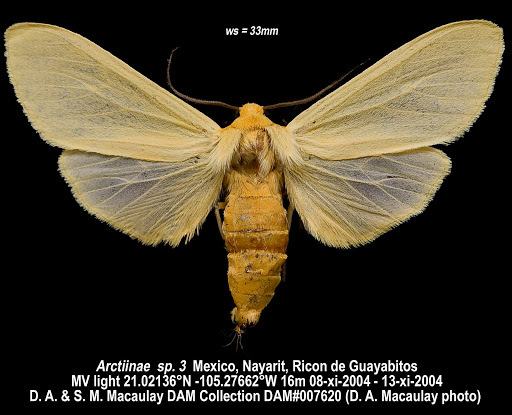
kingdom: Animalia
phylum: Arthropoda
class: Insecta
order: Lepidoptera
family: Erebidae
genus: Pareuchaetes
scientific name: Pareuchaetes insulata
